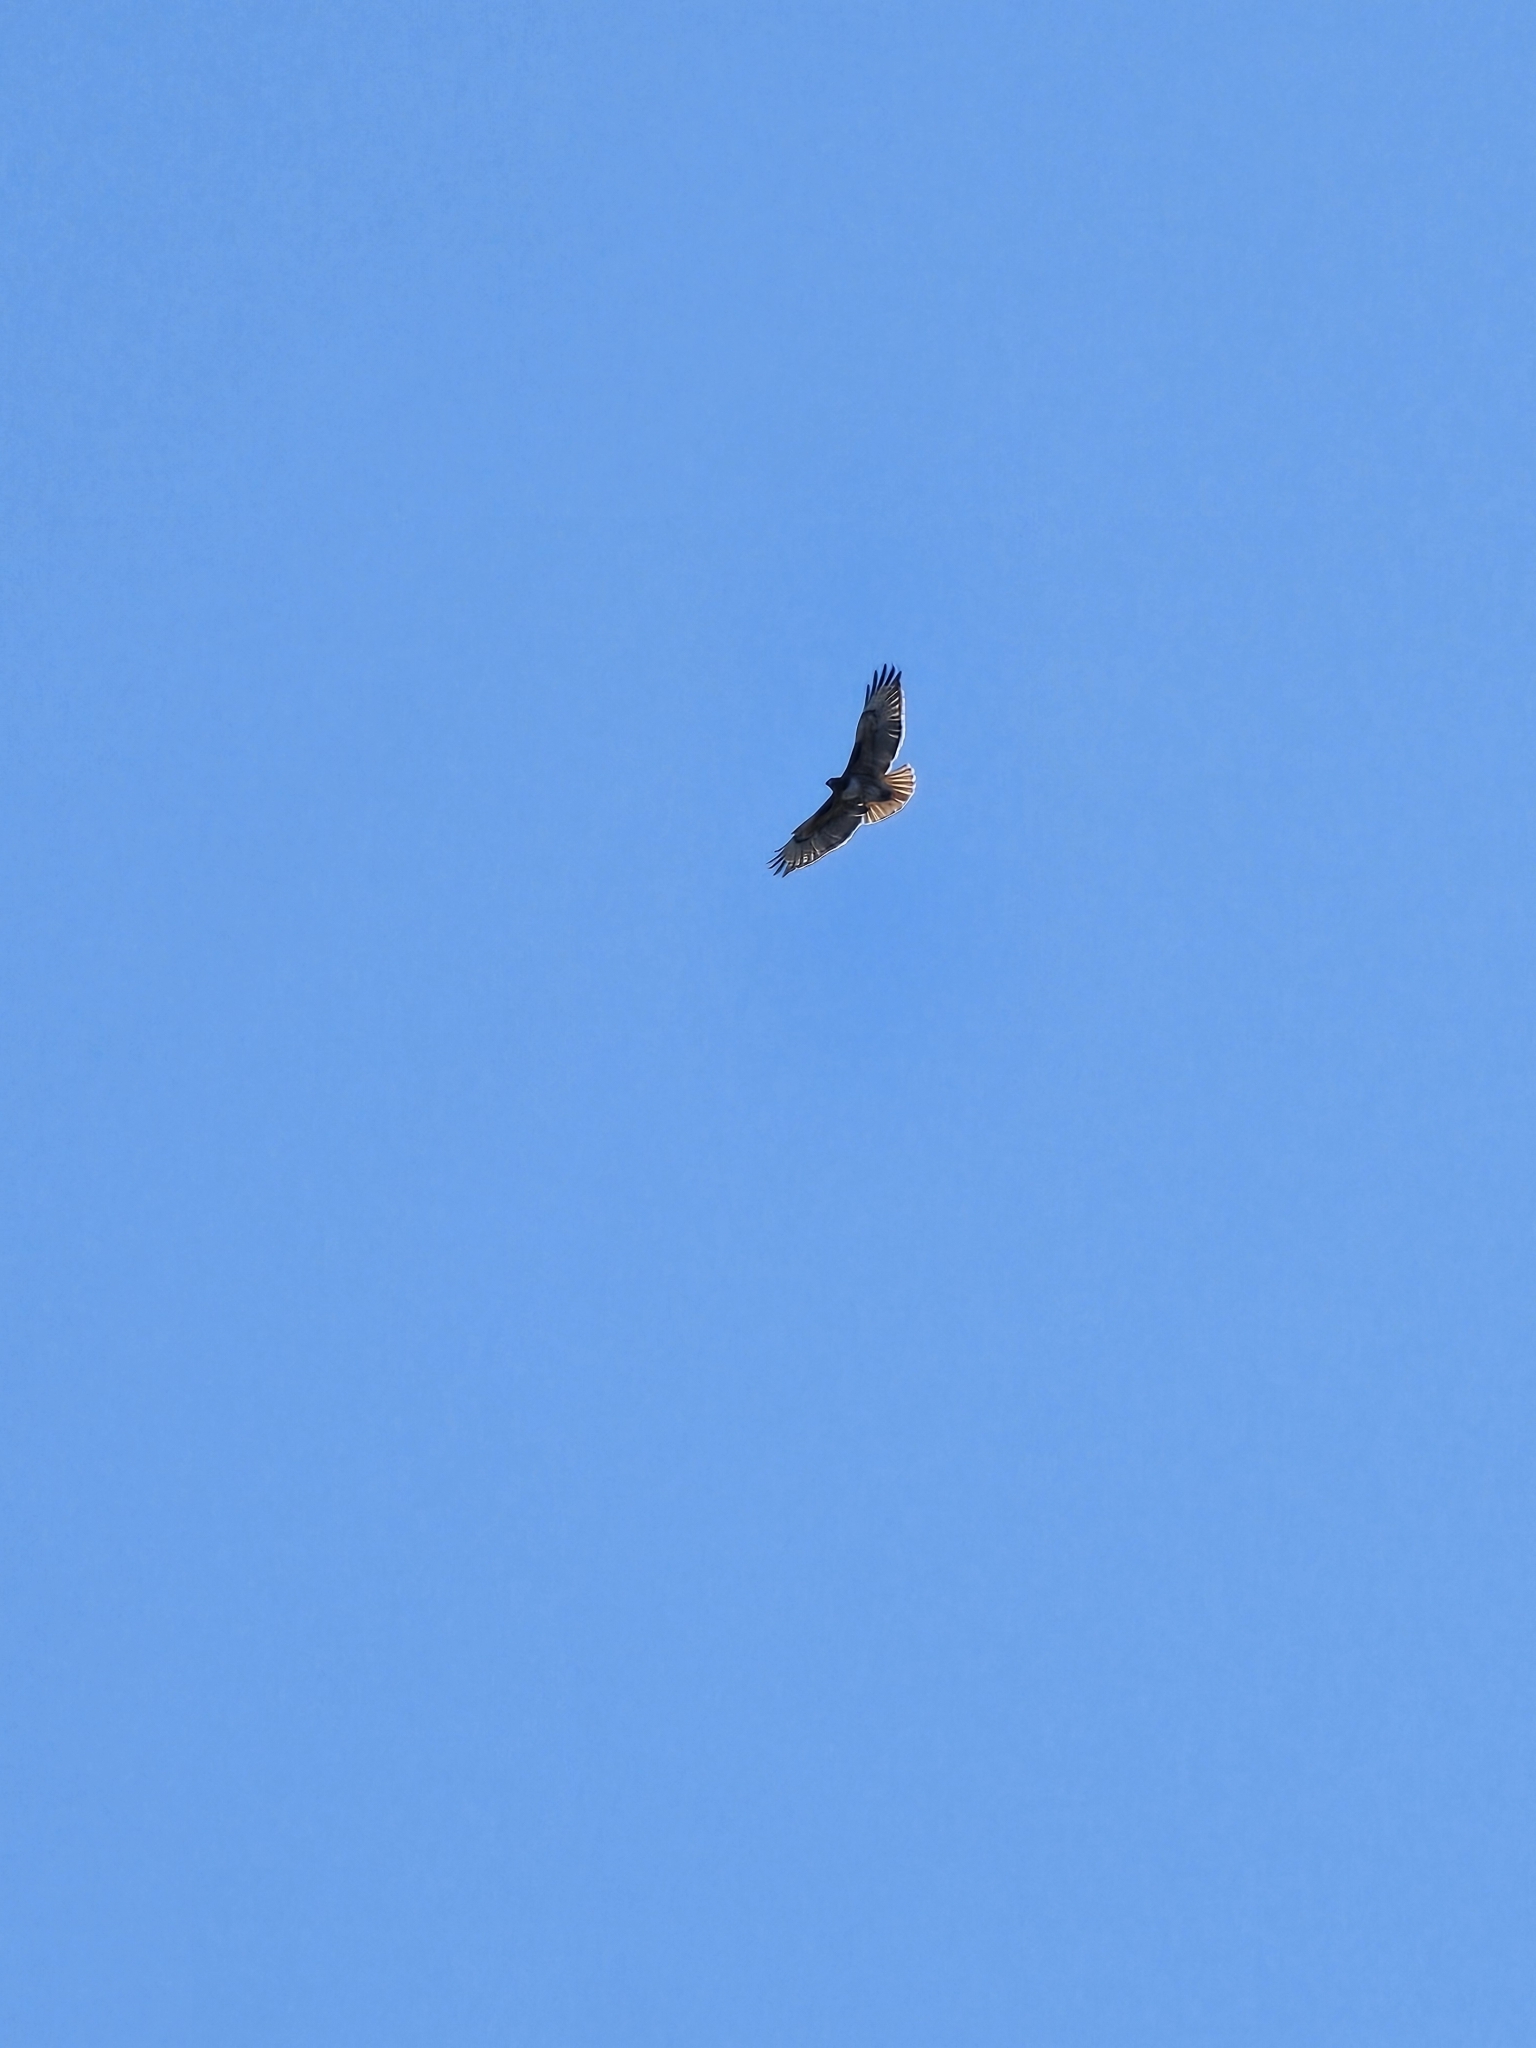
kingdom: Animalia
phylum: Chordata
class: Aves
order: Accipitriformes
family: Accipitridae
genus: Buteo
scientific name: Buteo jamaicensis
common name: Red-tailed hawk
